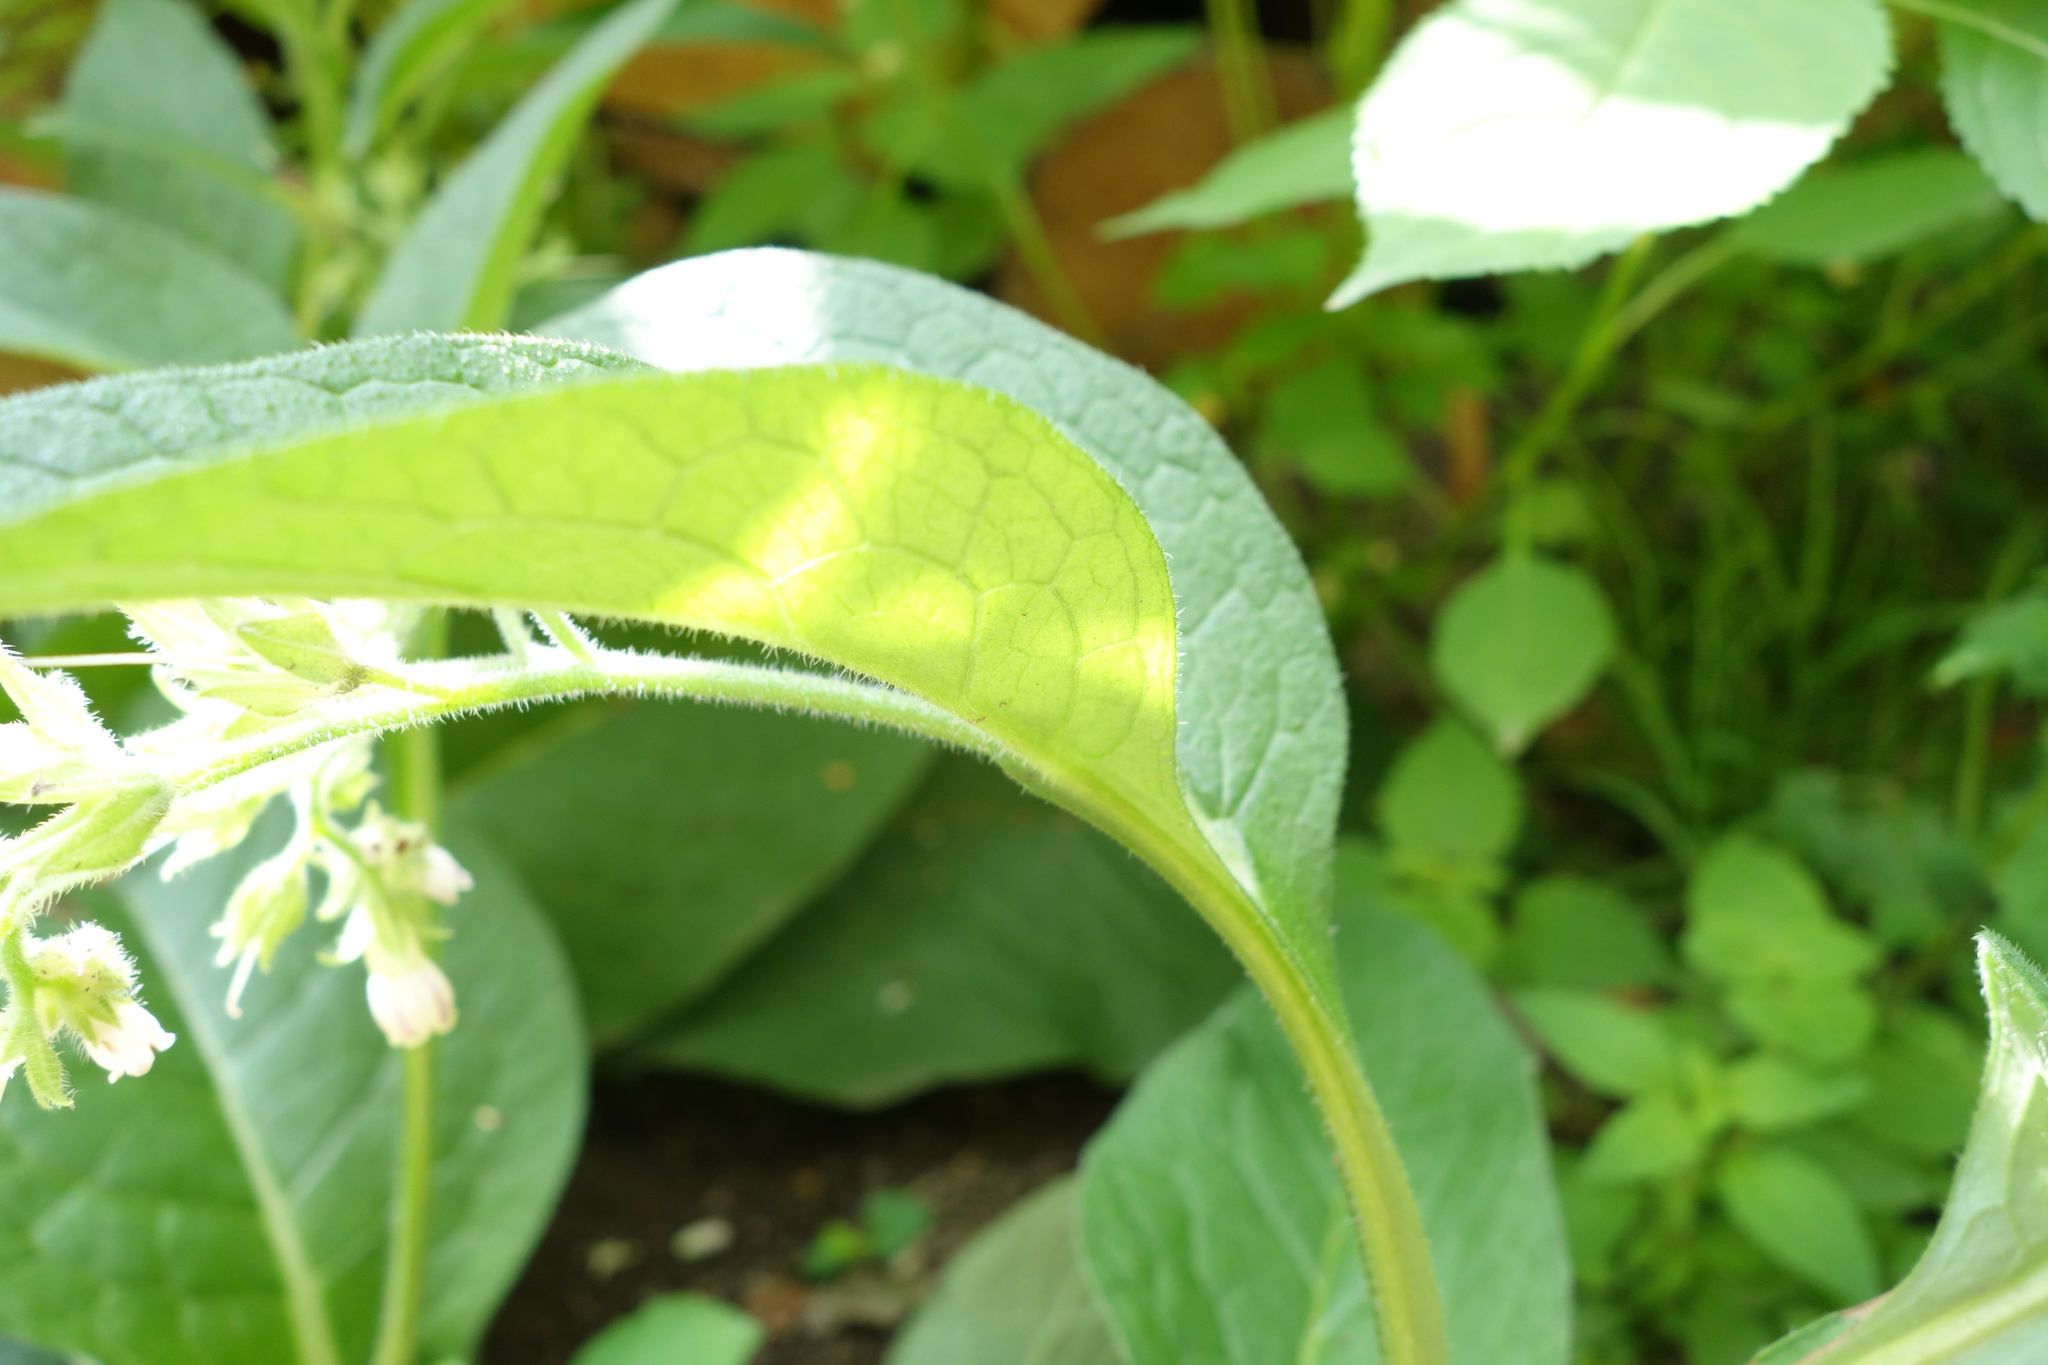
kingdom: Plantae
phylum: Tracheophyta
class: Magnoliopsida
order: Boraginales
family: Boraginaceae
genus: Symphytum
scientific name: Symphytum bohemicum
